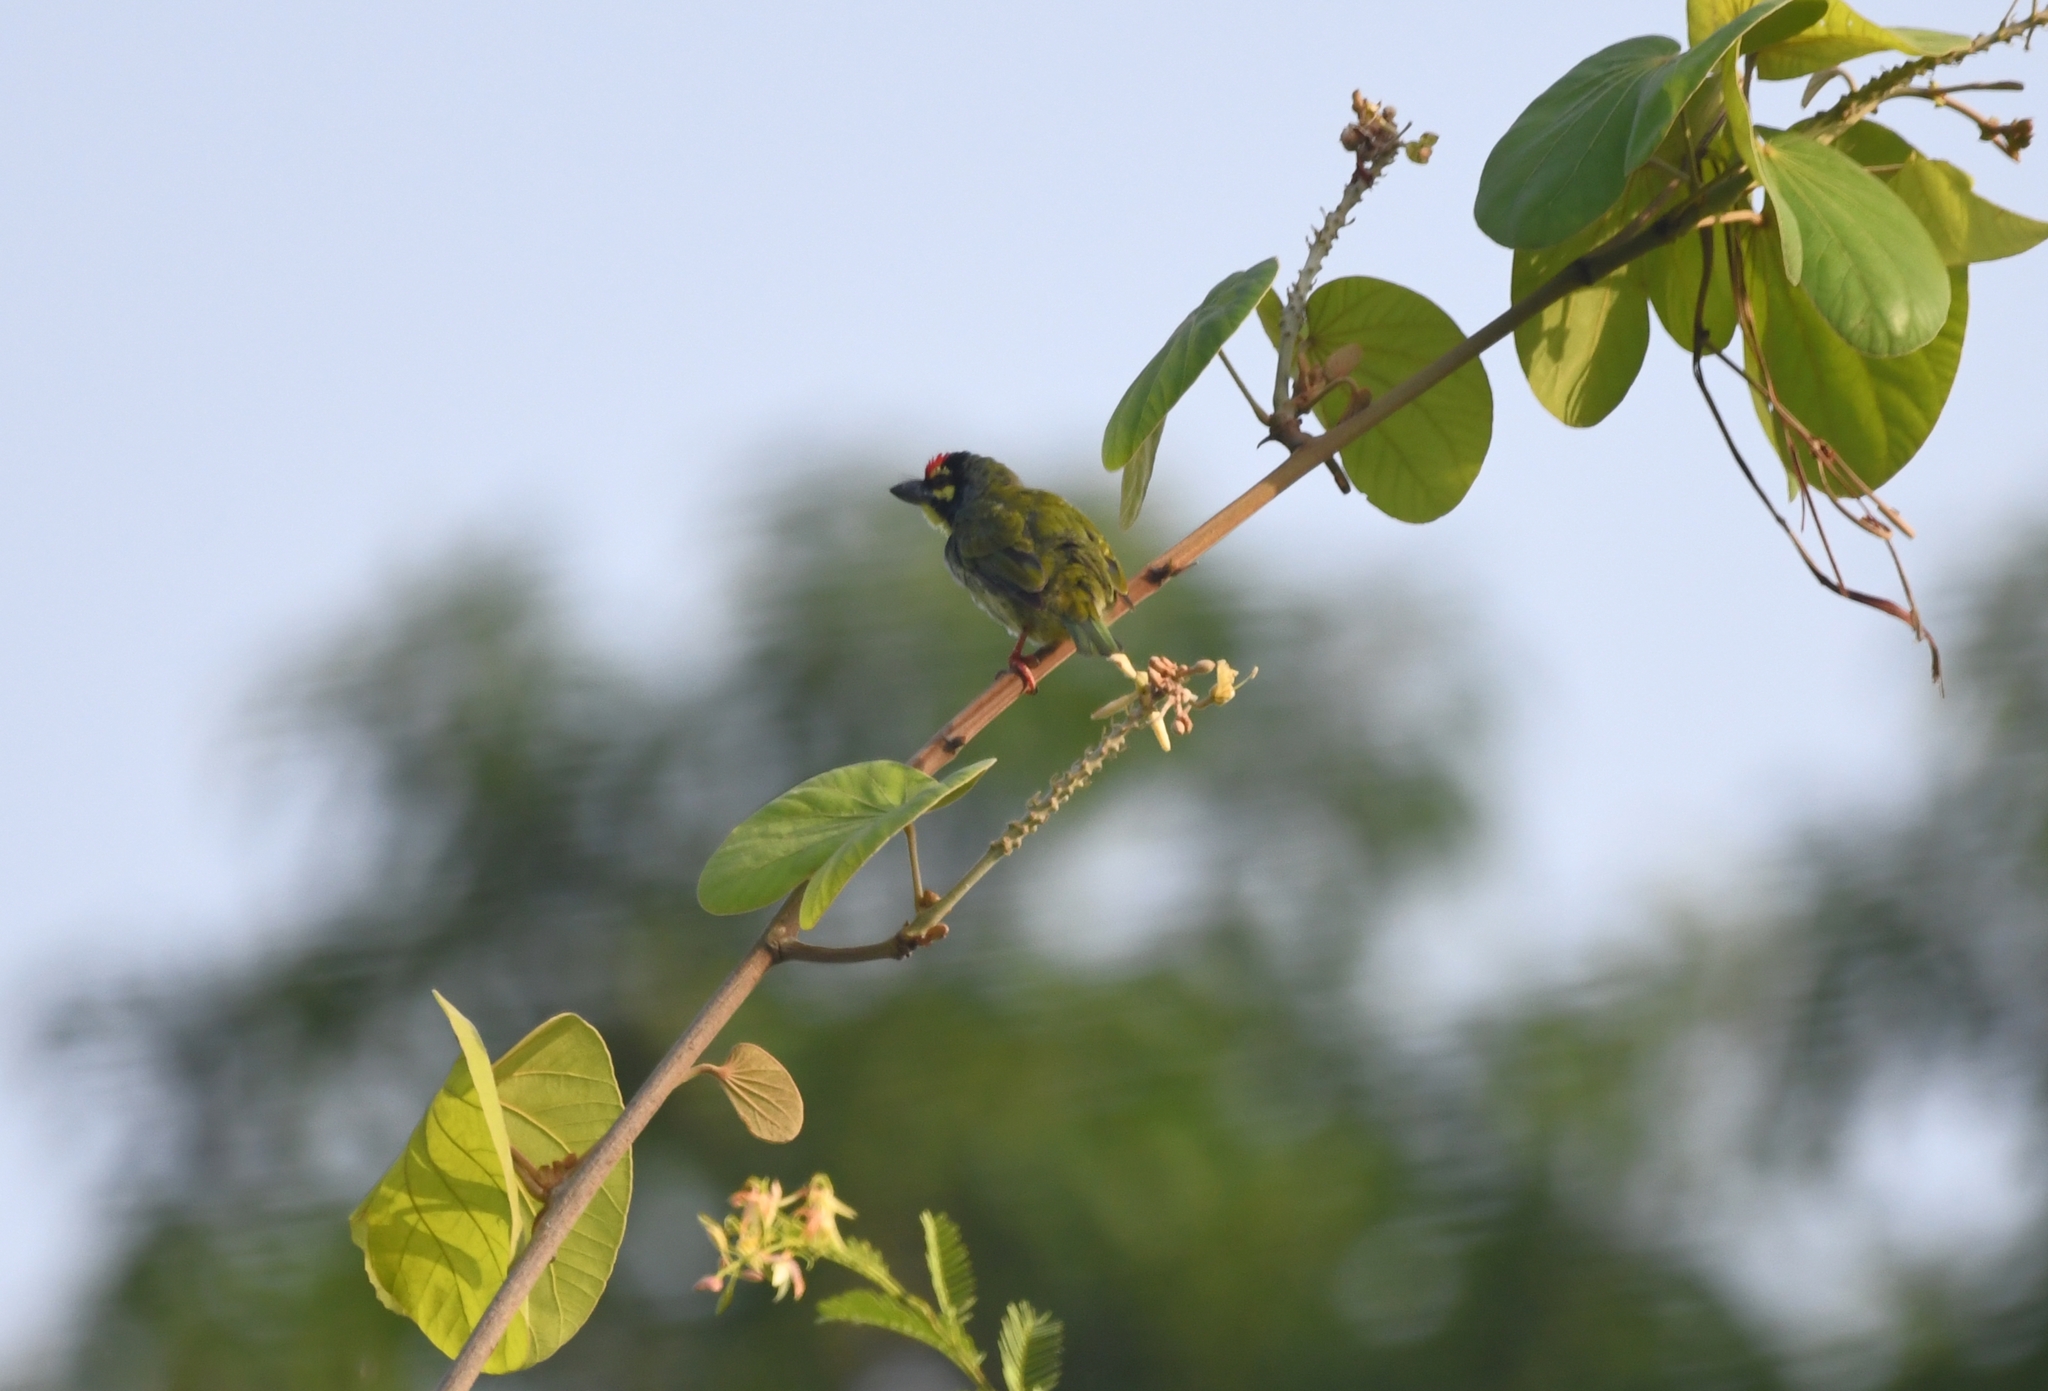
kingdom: Animalia
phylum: Chordata
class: Aves
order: Piciformes
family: Megalaimidae
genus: Psilopogon
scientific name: Psilopogon haemacephalus
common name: Coppersmith barbet
